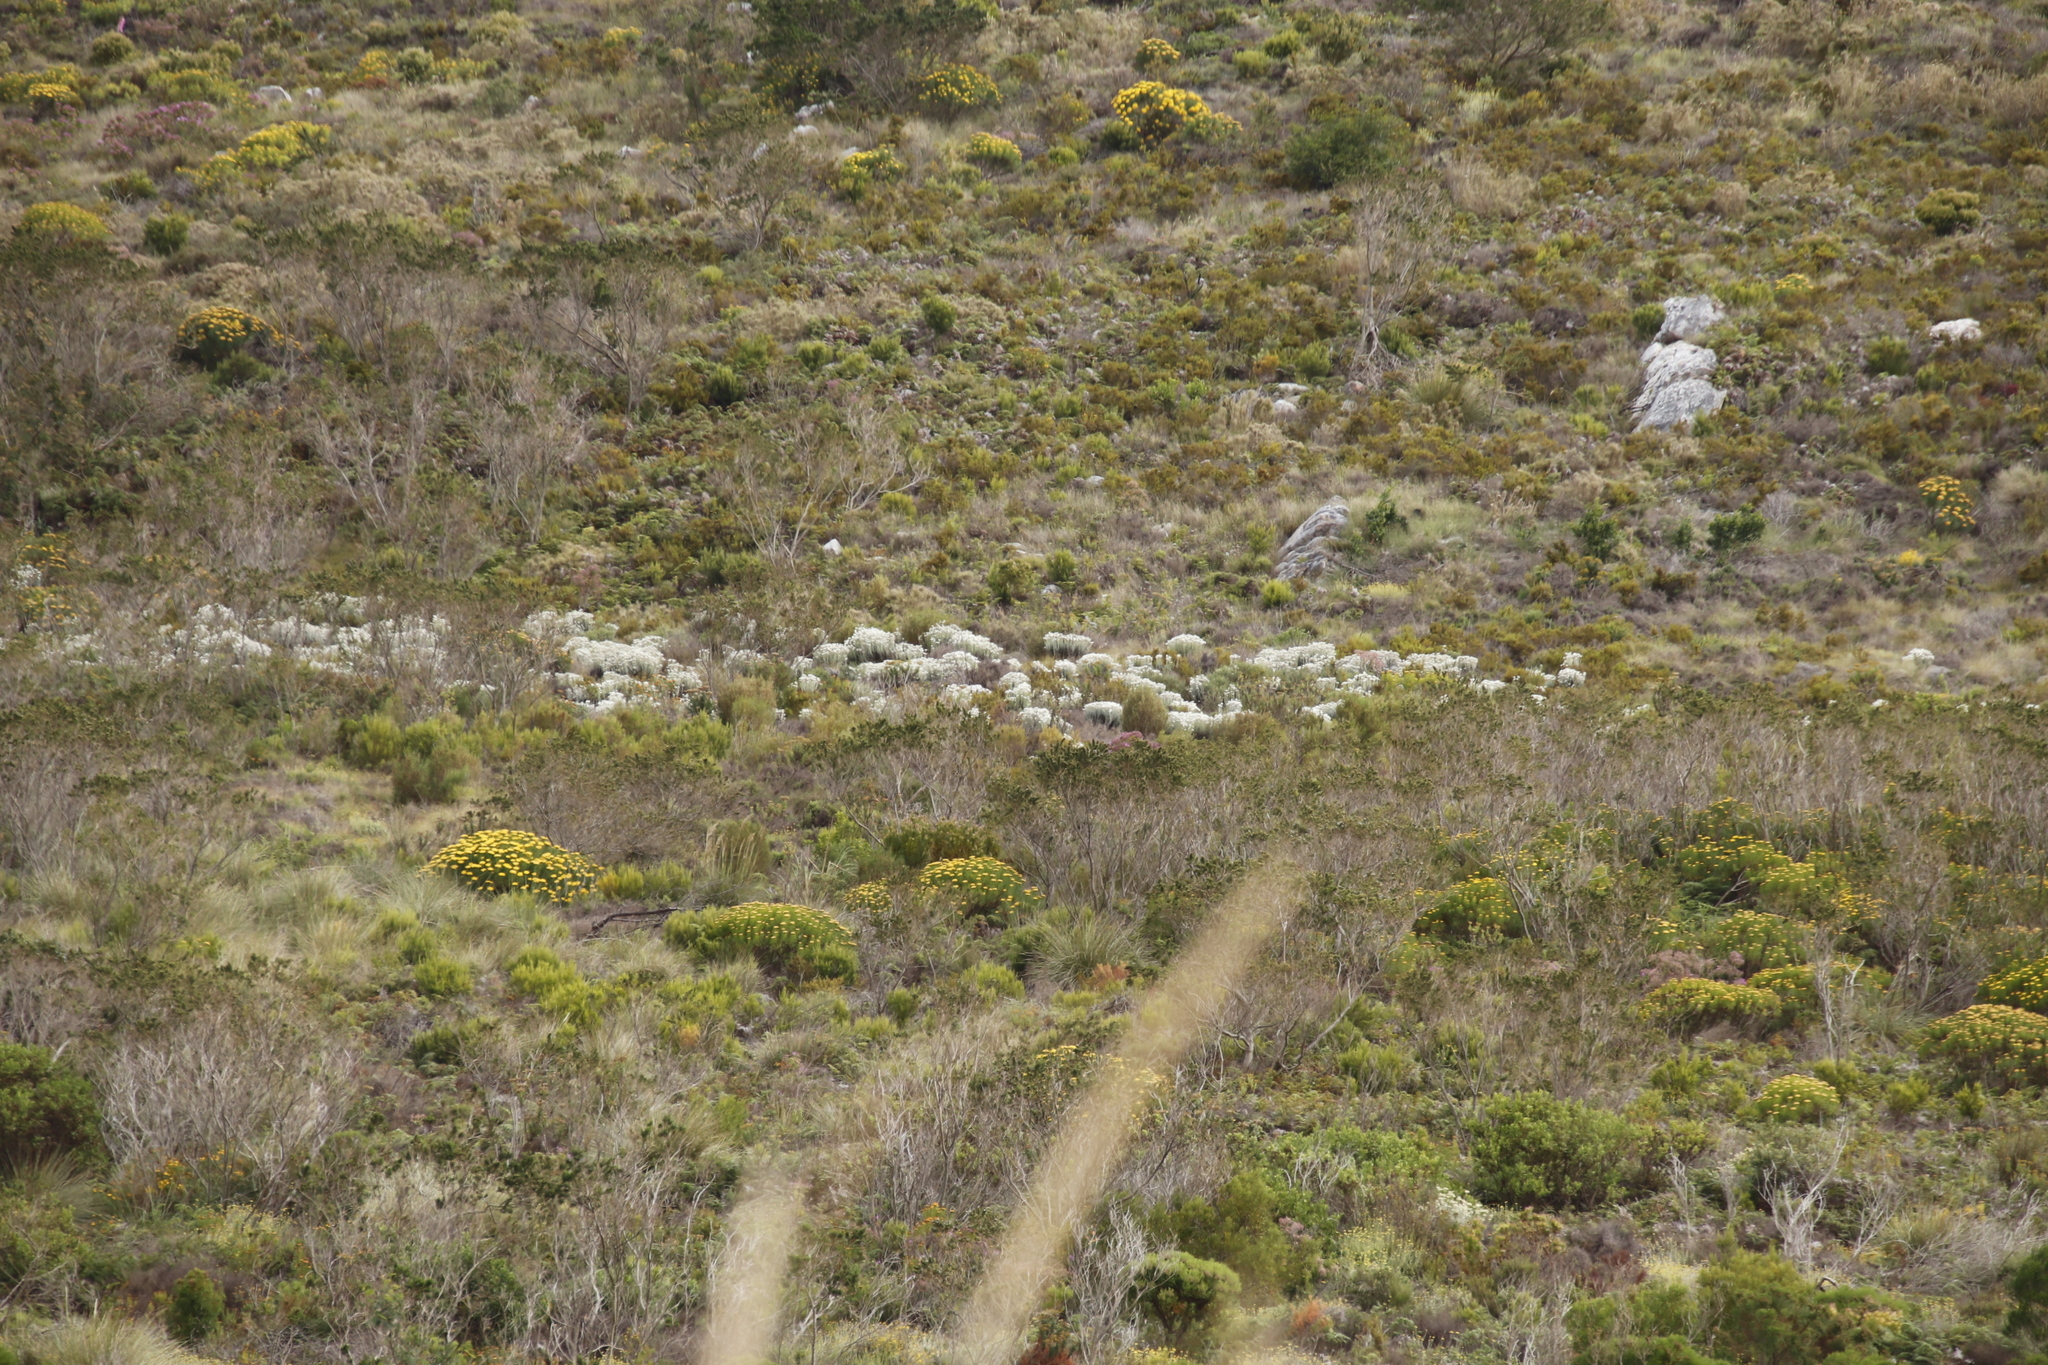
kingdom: Plantae
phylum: Tracheophyta
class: Magnoliopsida
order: Asterales
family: Asteraceae
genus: Syncarpha
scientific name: Syncarpha vestita
